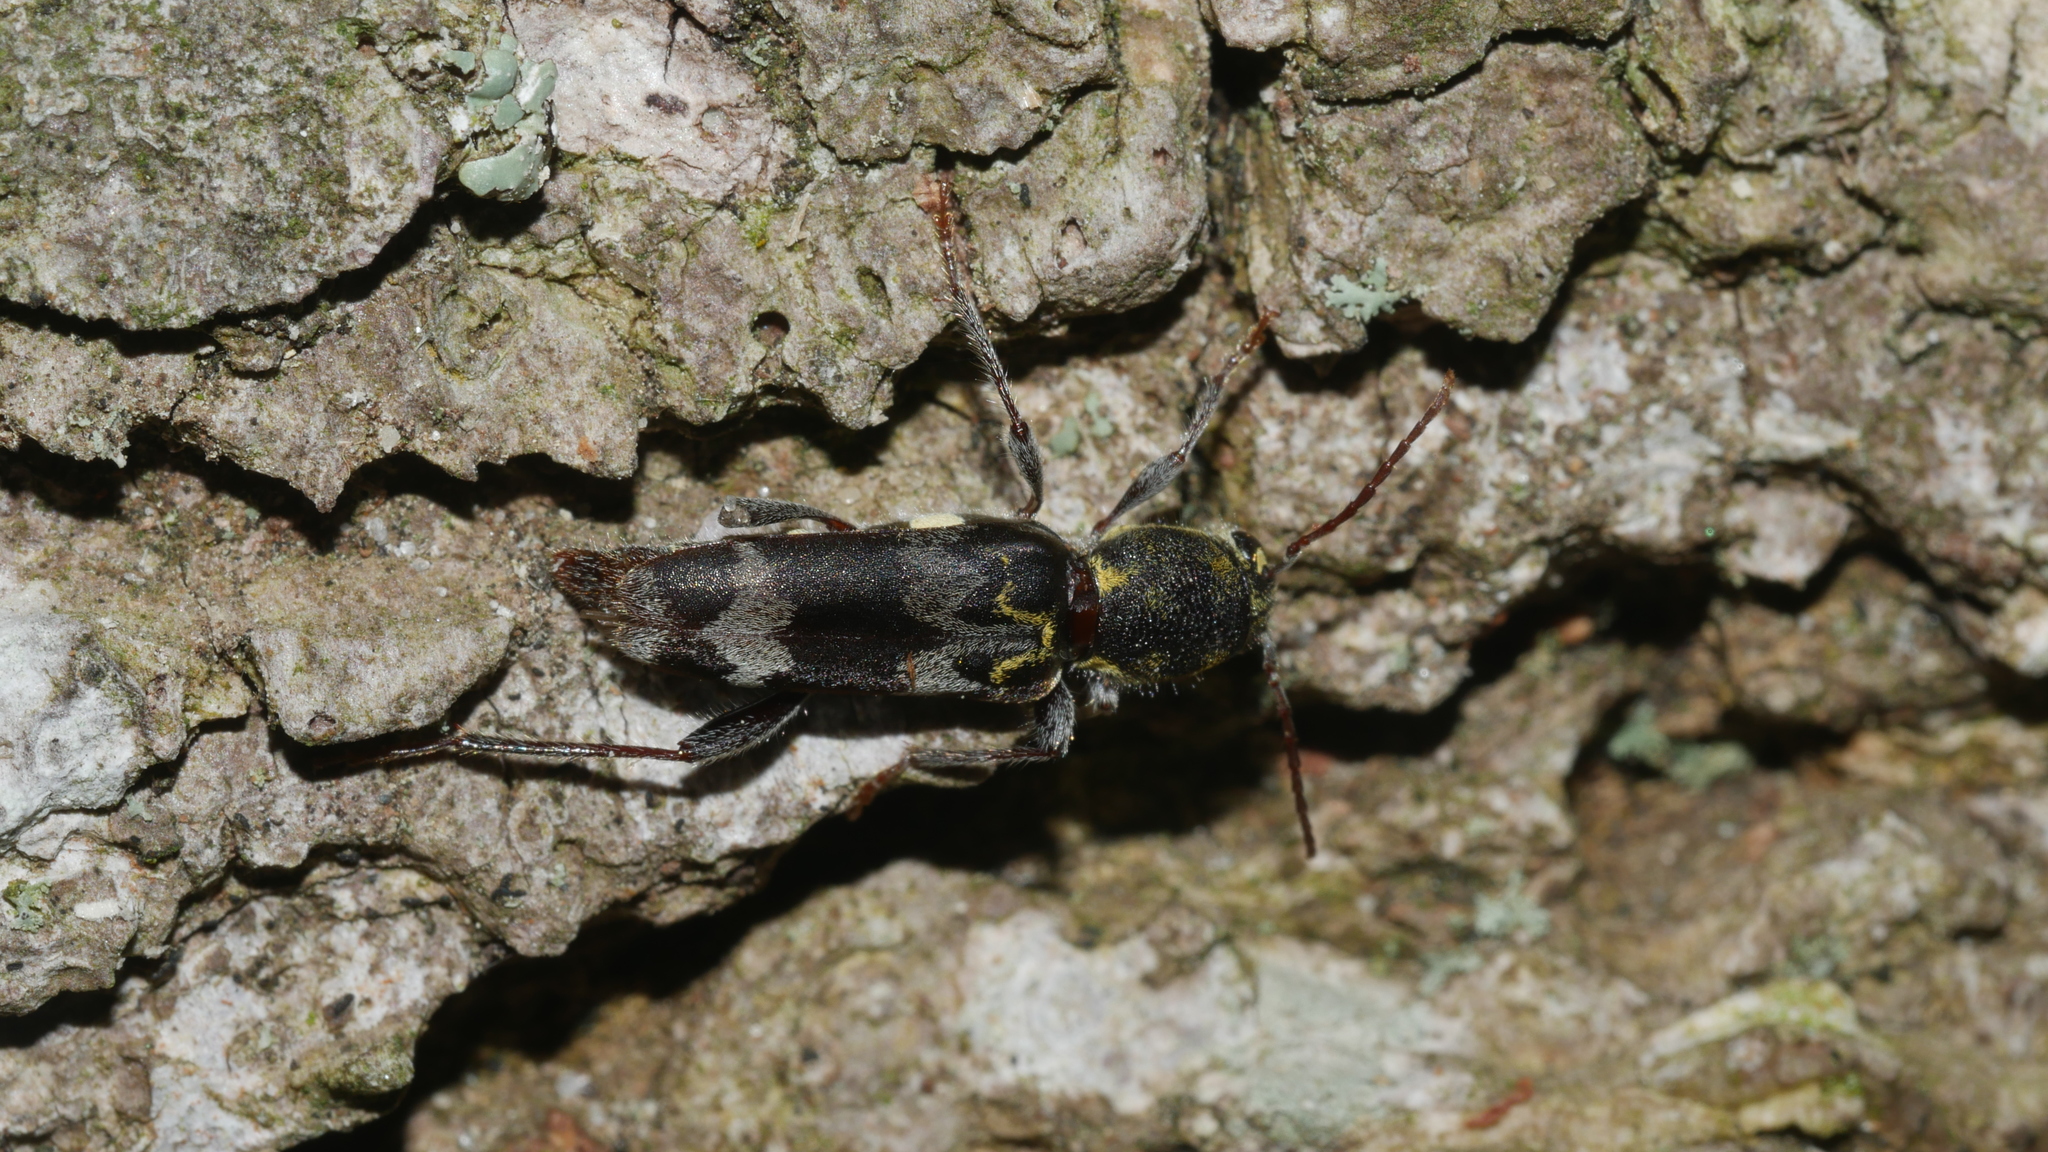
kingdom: Animalia
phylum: Arthropoda
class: Insecta
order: Coleoptera
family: Cerambycidae
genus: Xylotrechus
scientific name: Xylotrechus colonus
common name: Long-horned beetle
